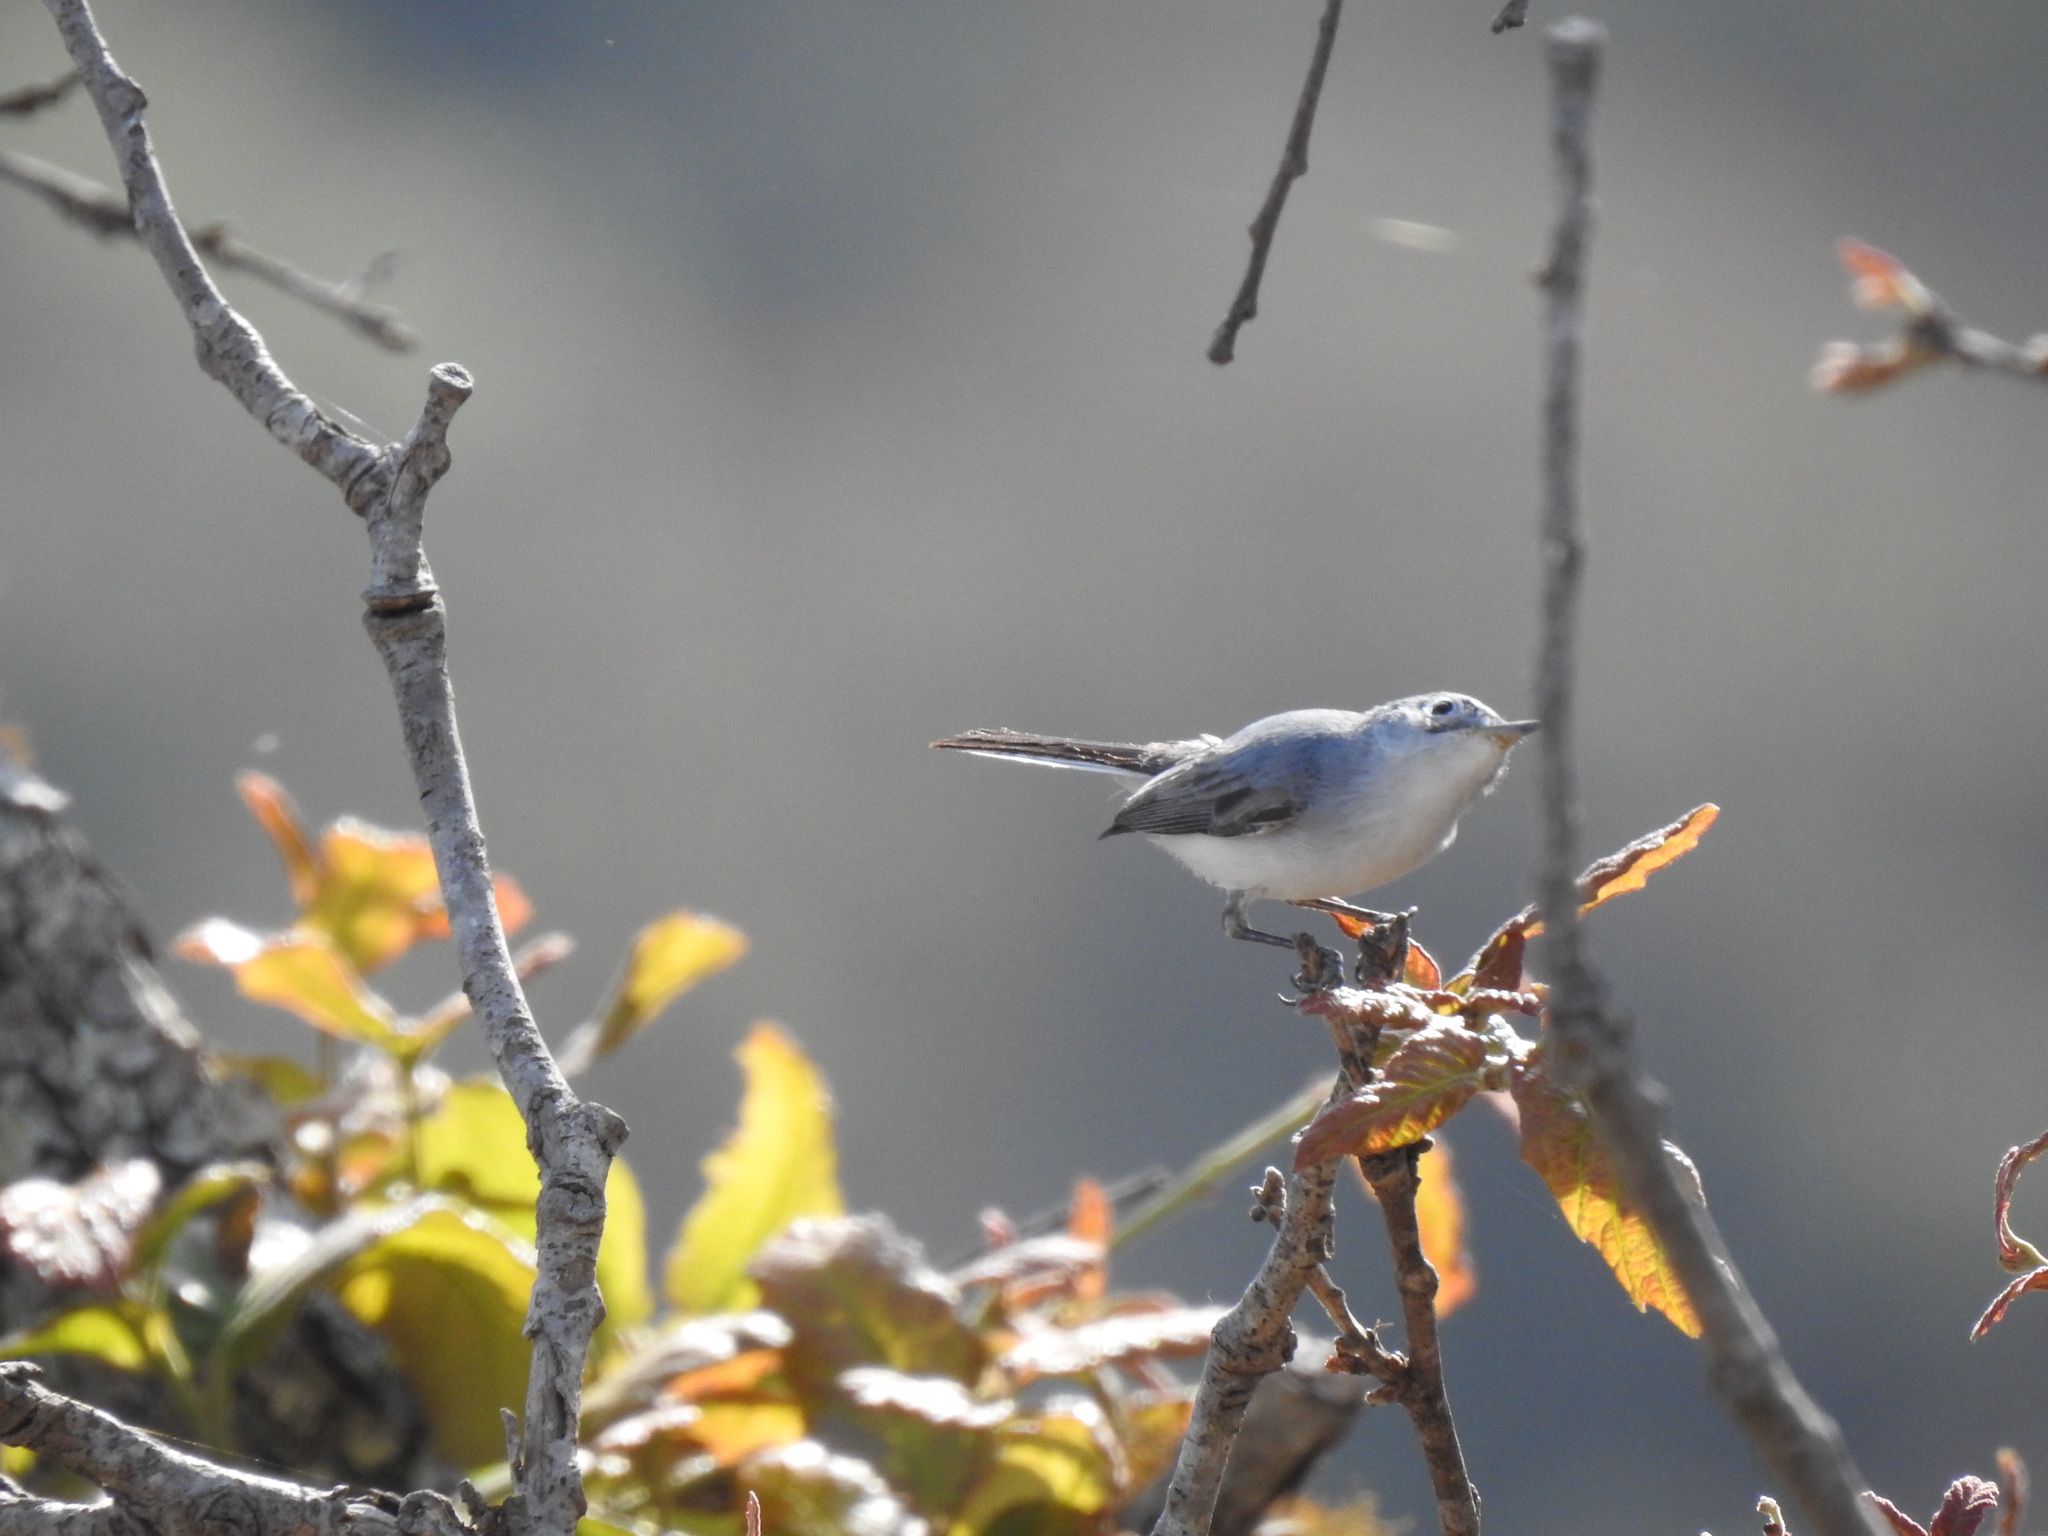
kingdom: Animalia
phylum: Chordata
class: Aves
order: Passeriformes
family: Polioptilidae
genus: Polioptila
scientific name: Polioptila caerulea
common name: Blue-gray gnatcatcher
